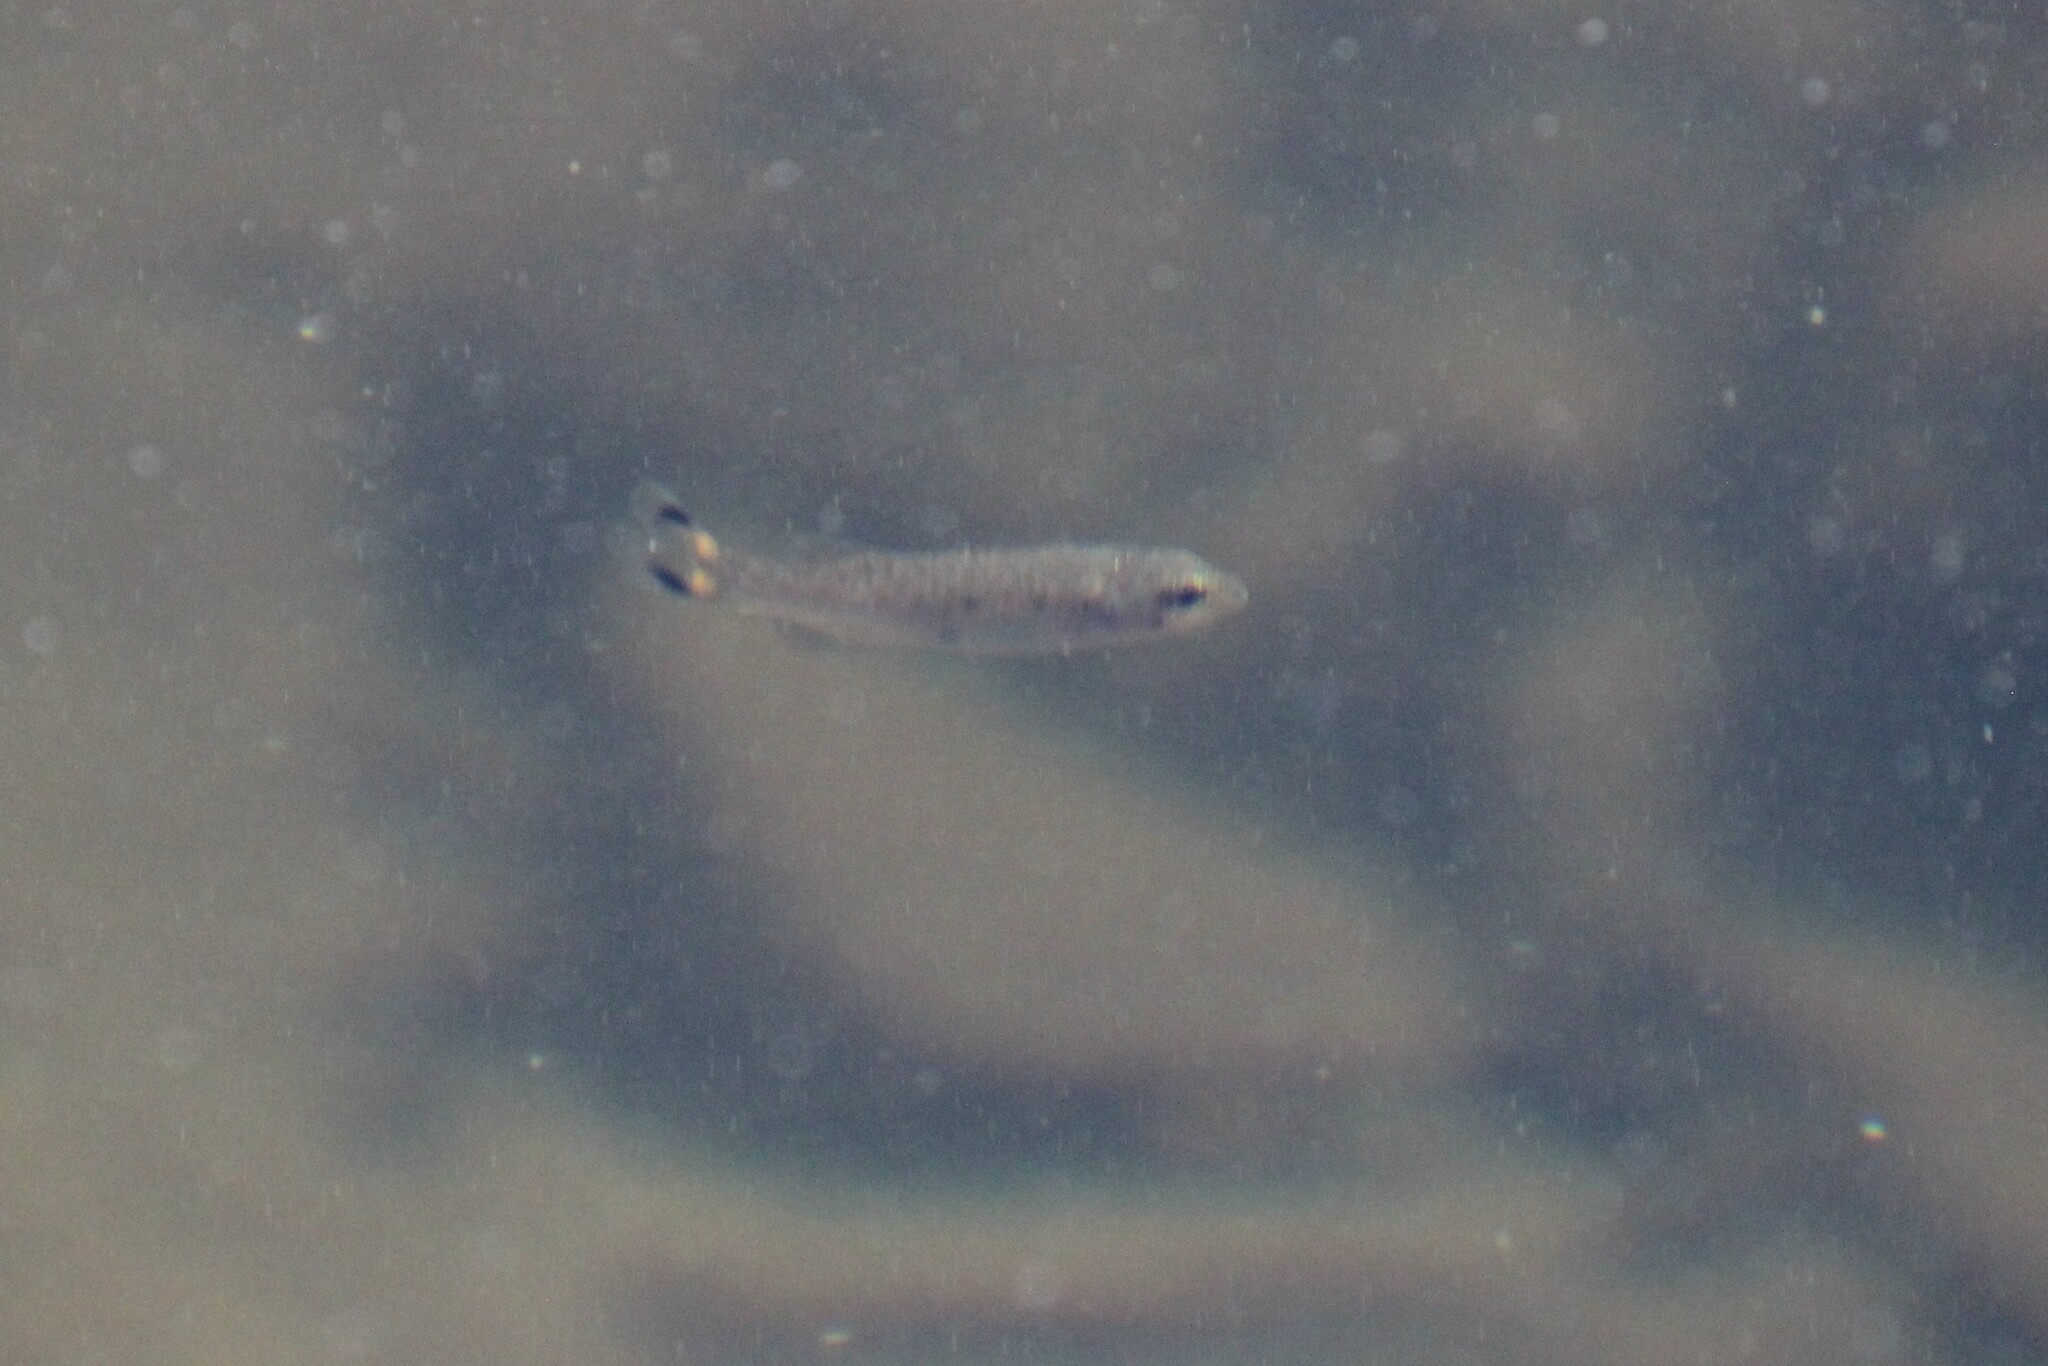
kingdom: Animalia
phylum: Chordata
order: Perciformes
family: Centrarchidae
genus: Micropterus
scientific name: Micropterus dolomieu
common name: Smallmouth bass
